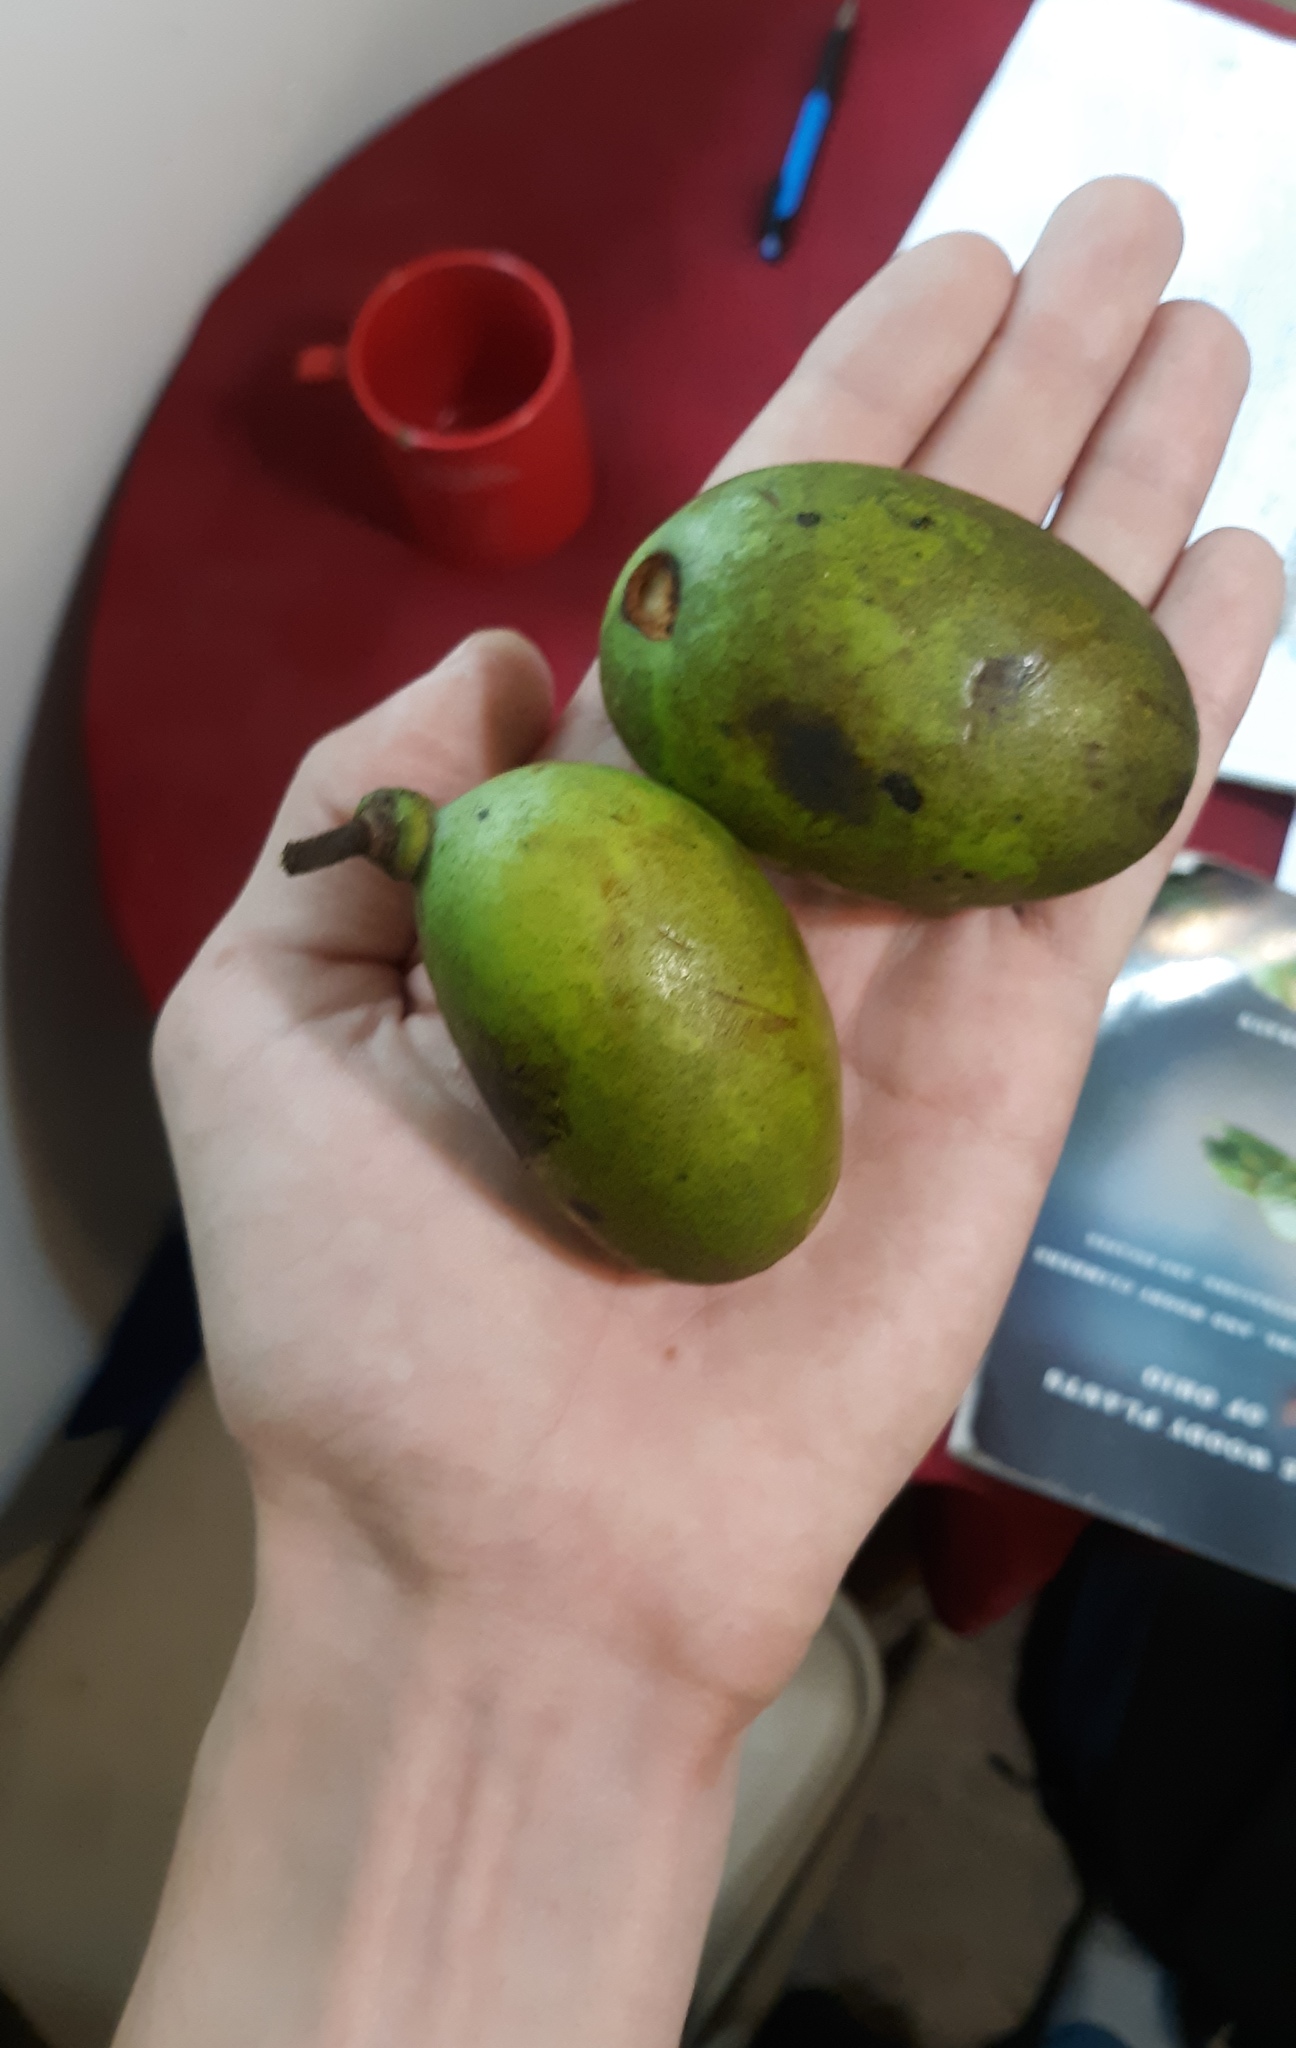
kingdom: Plantae
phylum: Tracheophyta
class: Magnoliopsida
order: Magnoliales
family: Annonaceae
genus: Asimina
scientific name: Asimina triloba
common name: Dog-banana
